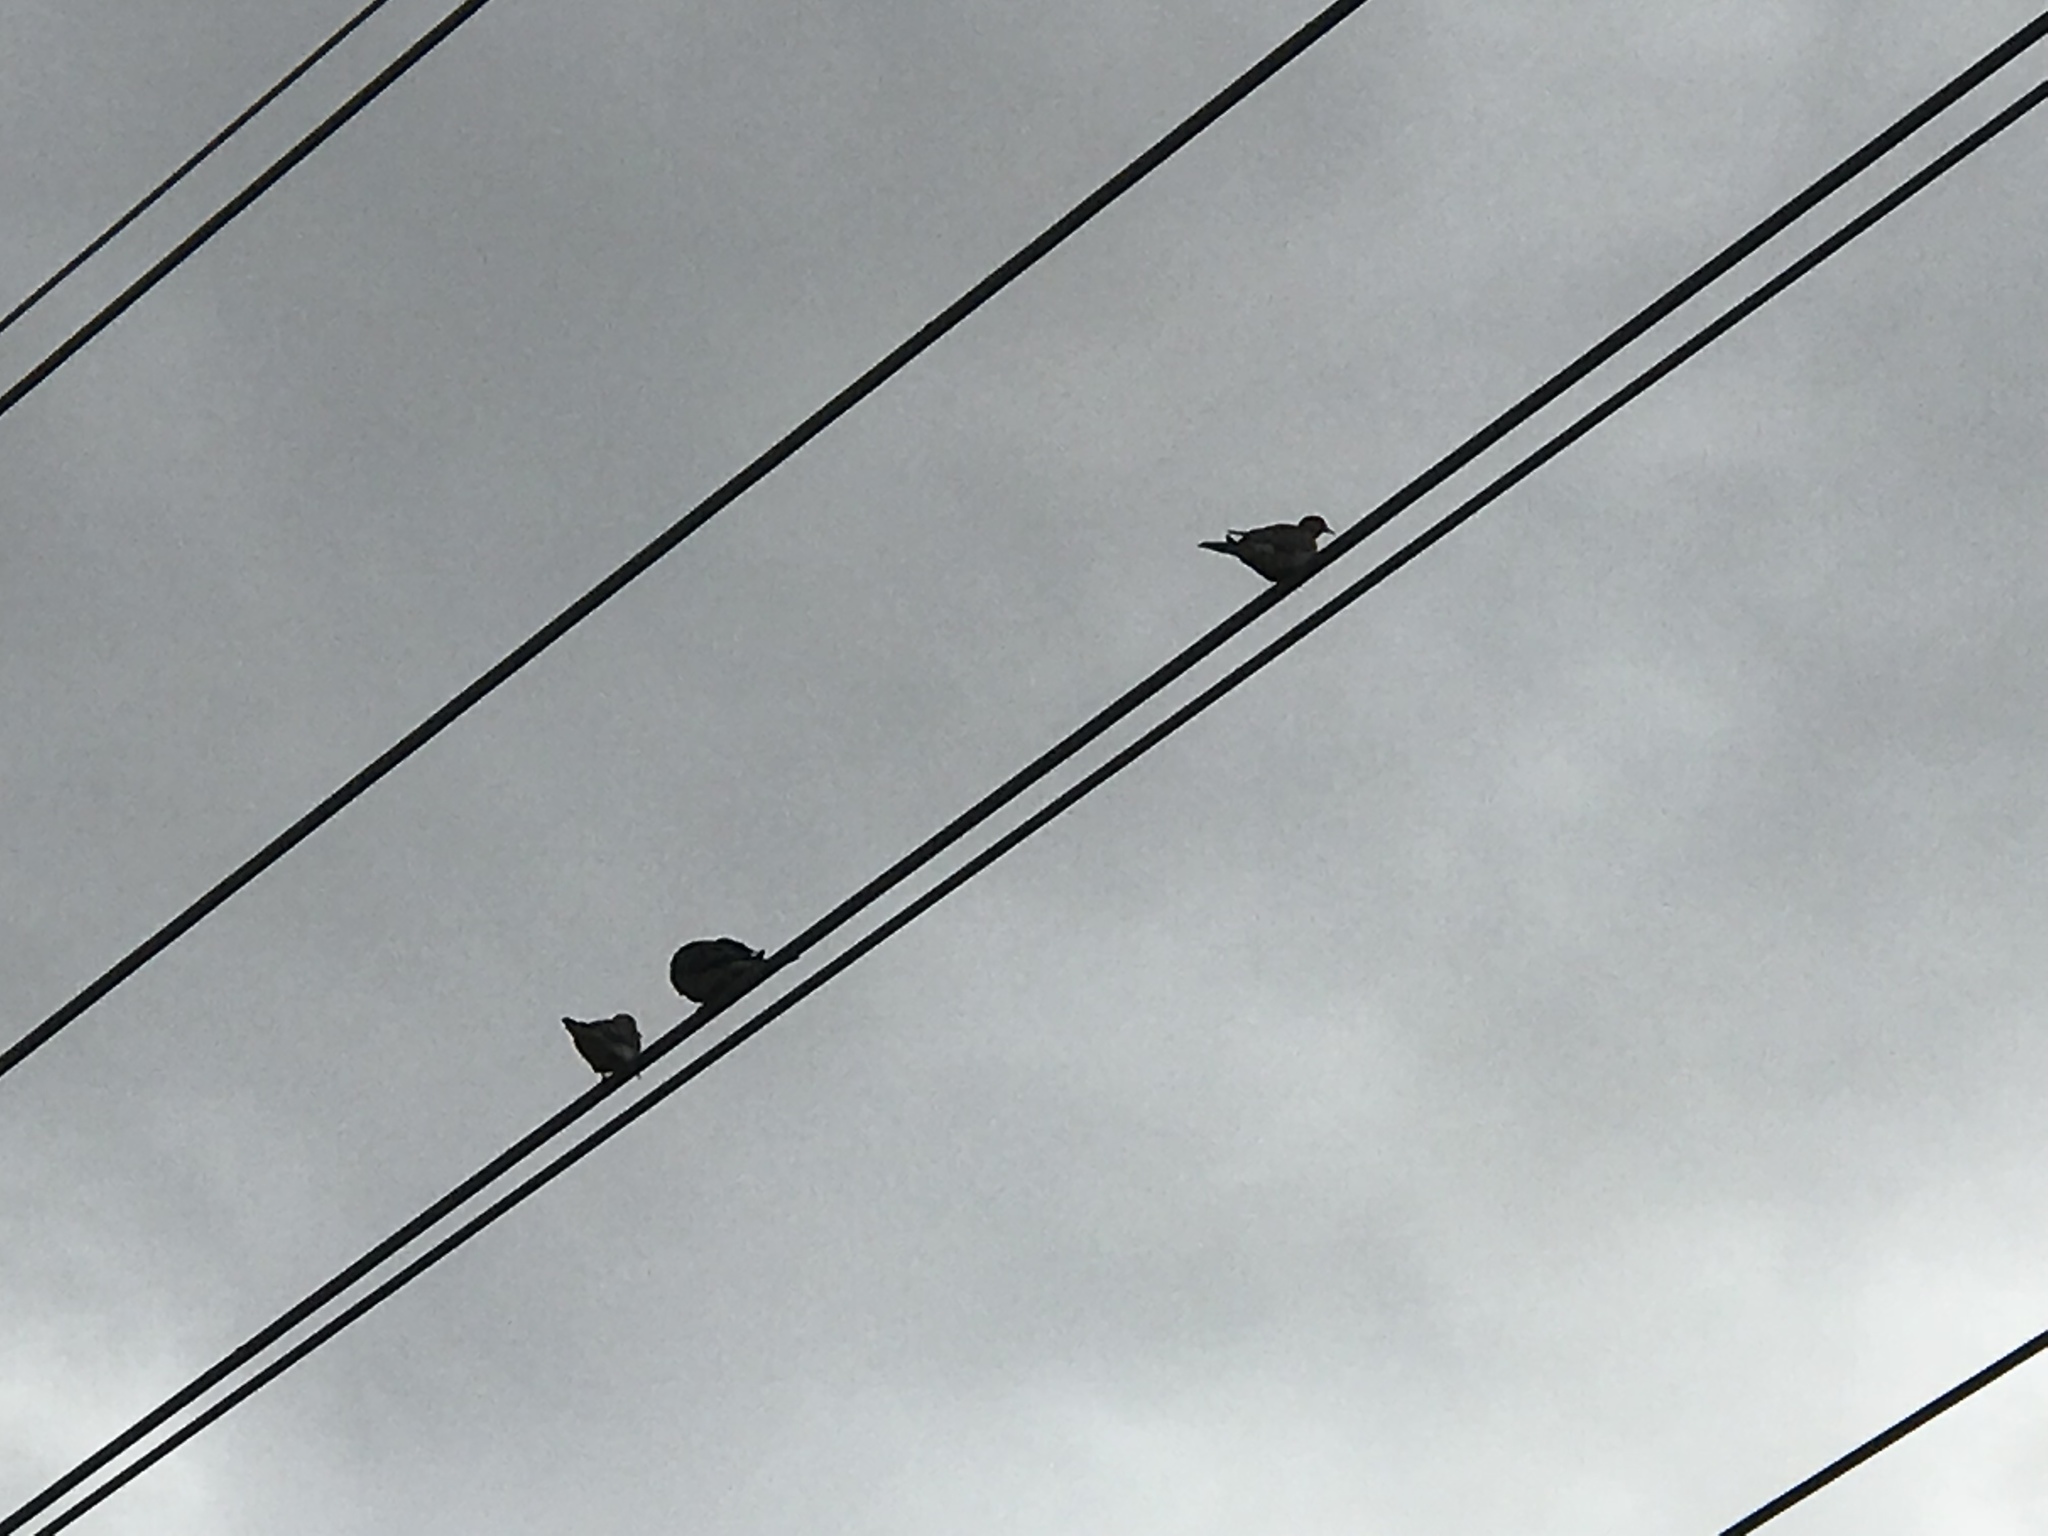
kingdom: Animalia
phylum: Chordata
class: Aves
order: Columbiformes
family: Columbidae
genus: Zenaida
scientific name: Zenaida macroura
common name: Mourning dove
